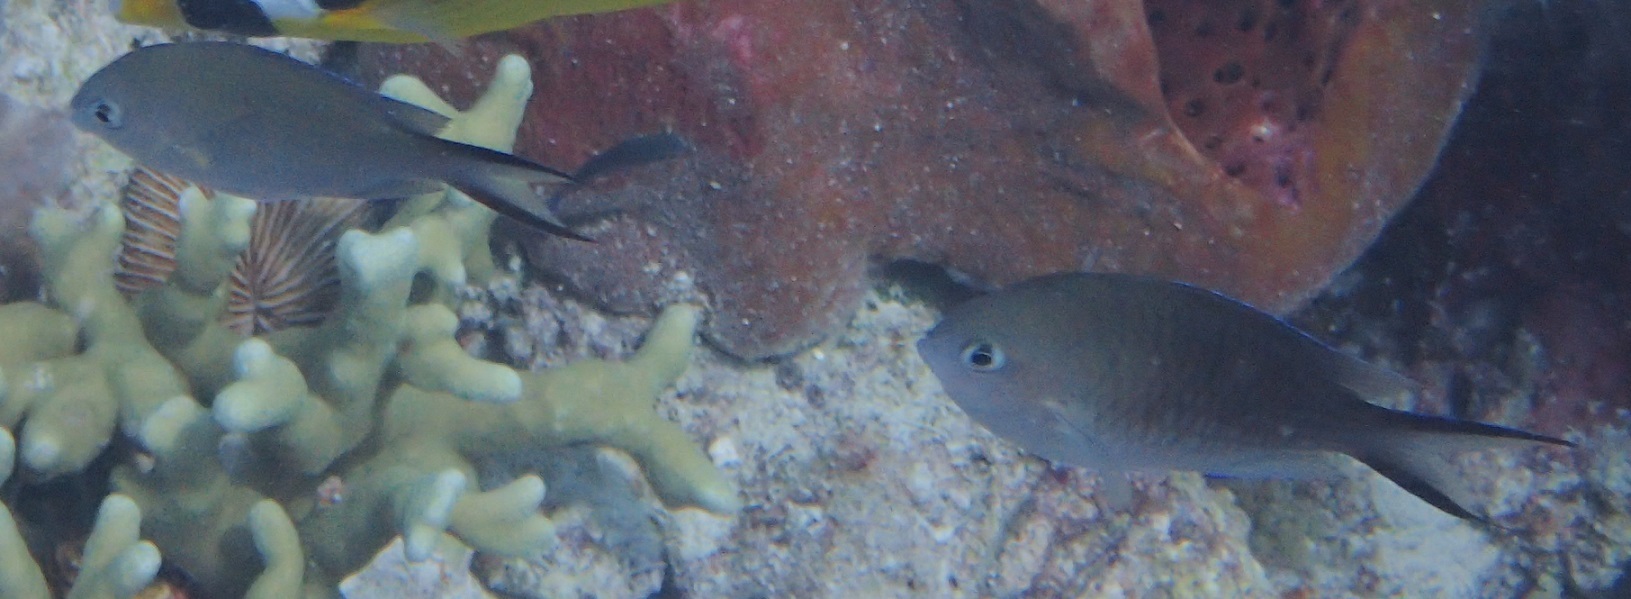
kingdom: Animalia
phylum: Chordata
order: Perciformes
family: Pomacentridae
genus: Chromis
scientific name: Chromis ternatensis
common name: Ternate chromis
